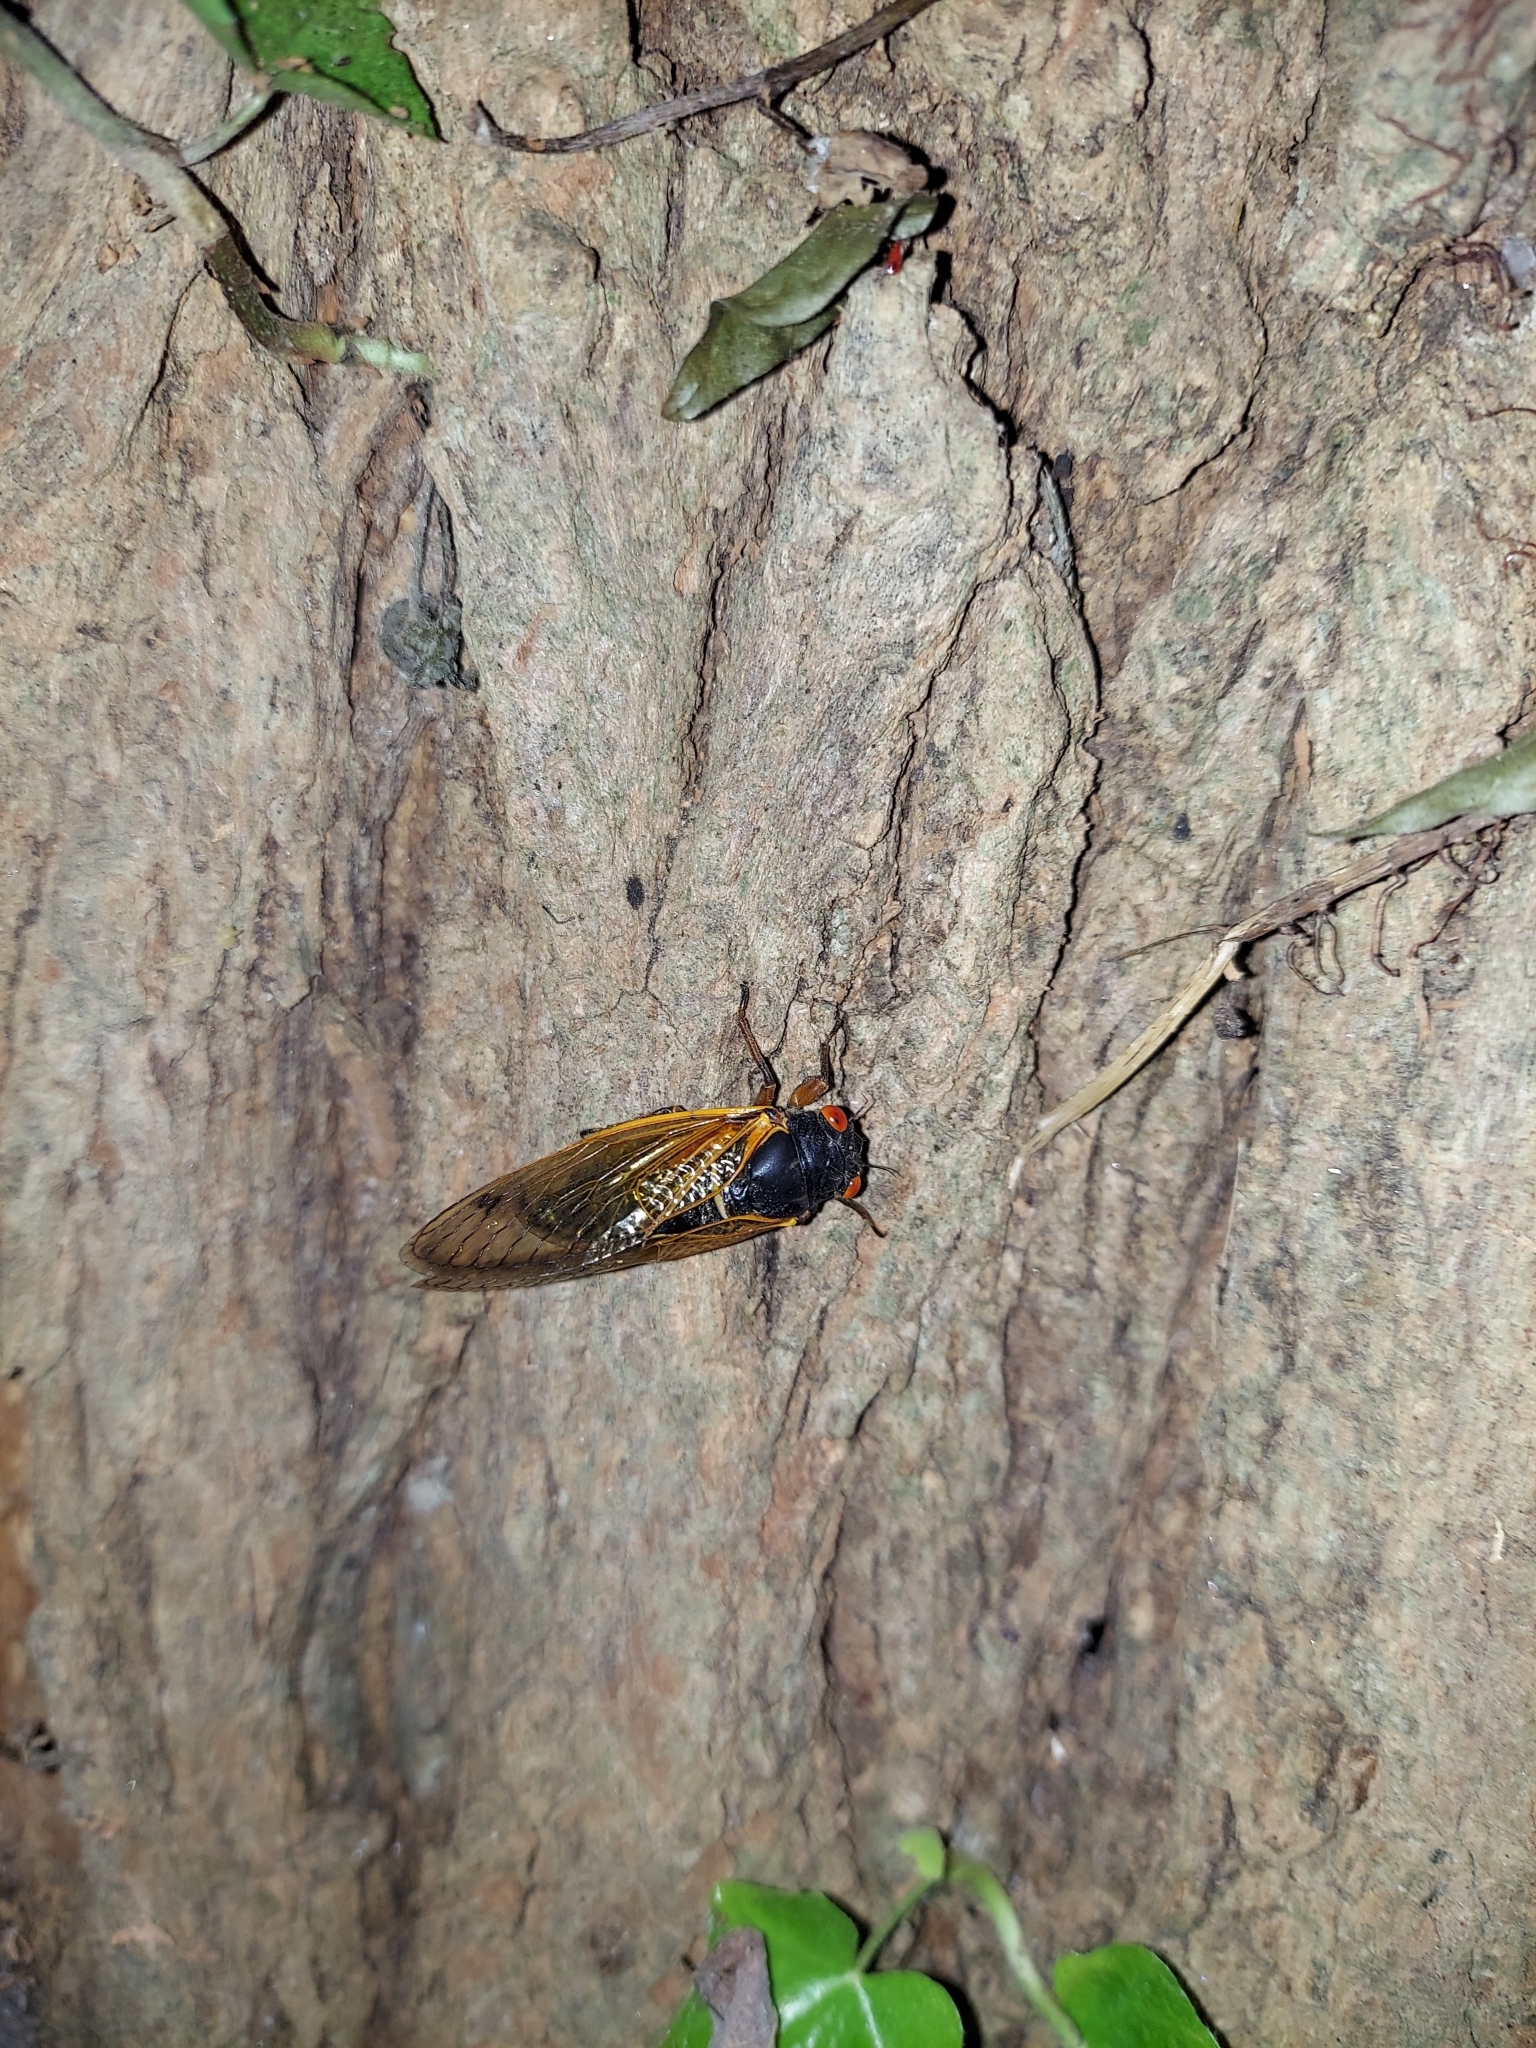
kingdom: Animalia
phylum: Arthropoda
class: Insecta
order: Hemiptera
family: Cicadidae
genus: Magicicada
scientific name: Magicicada septendecula
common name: Decula periodical cicada
